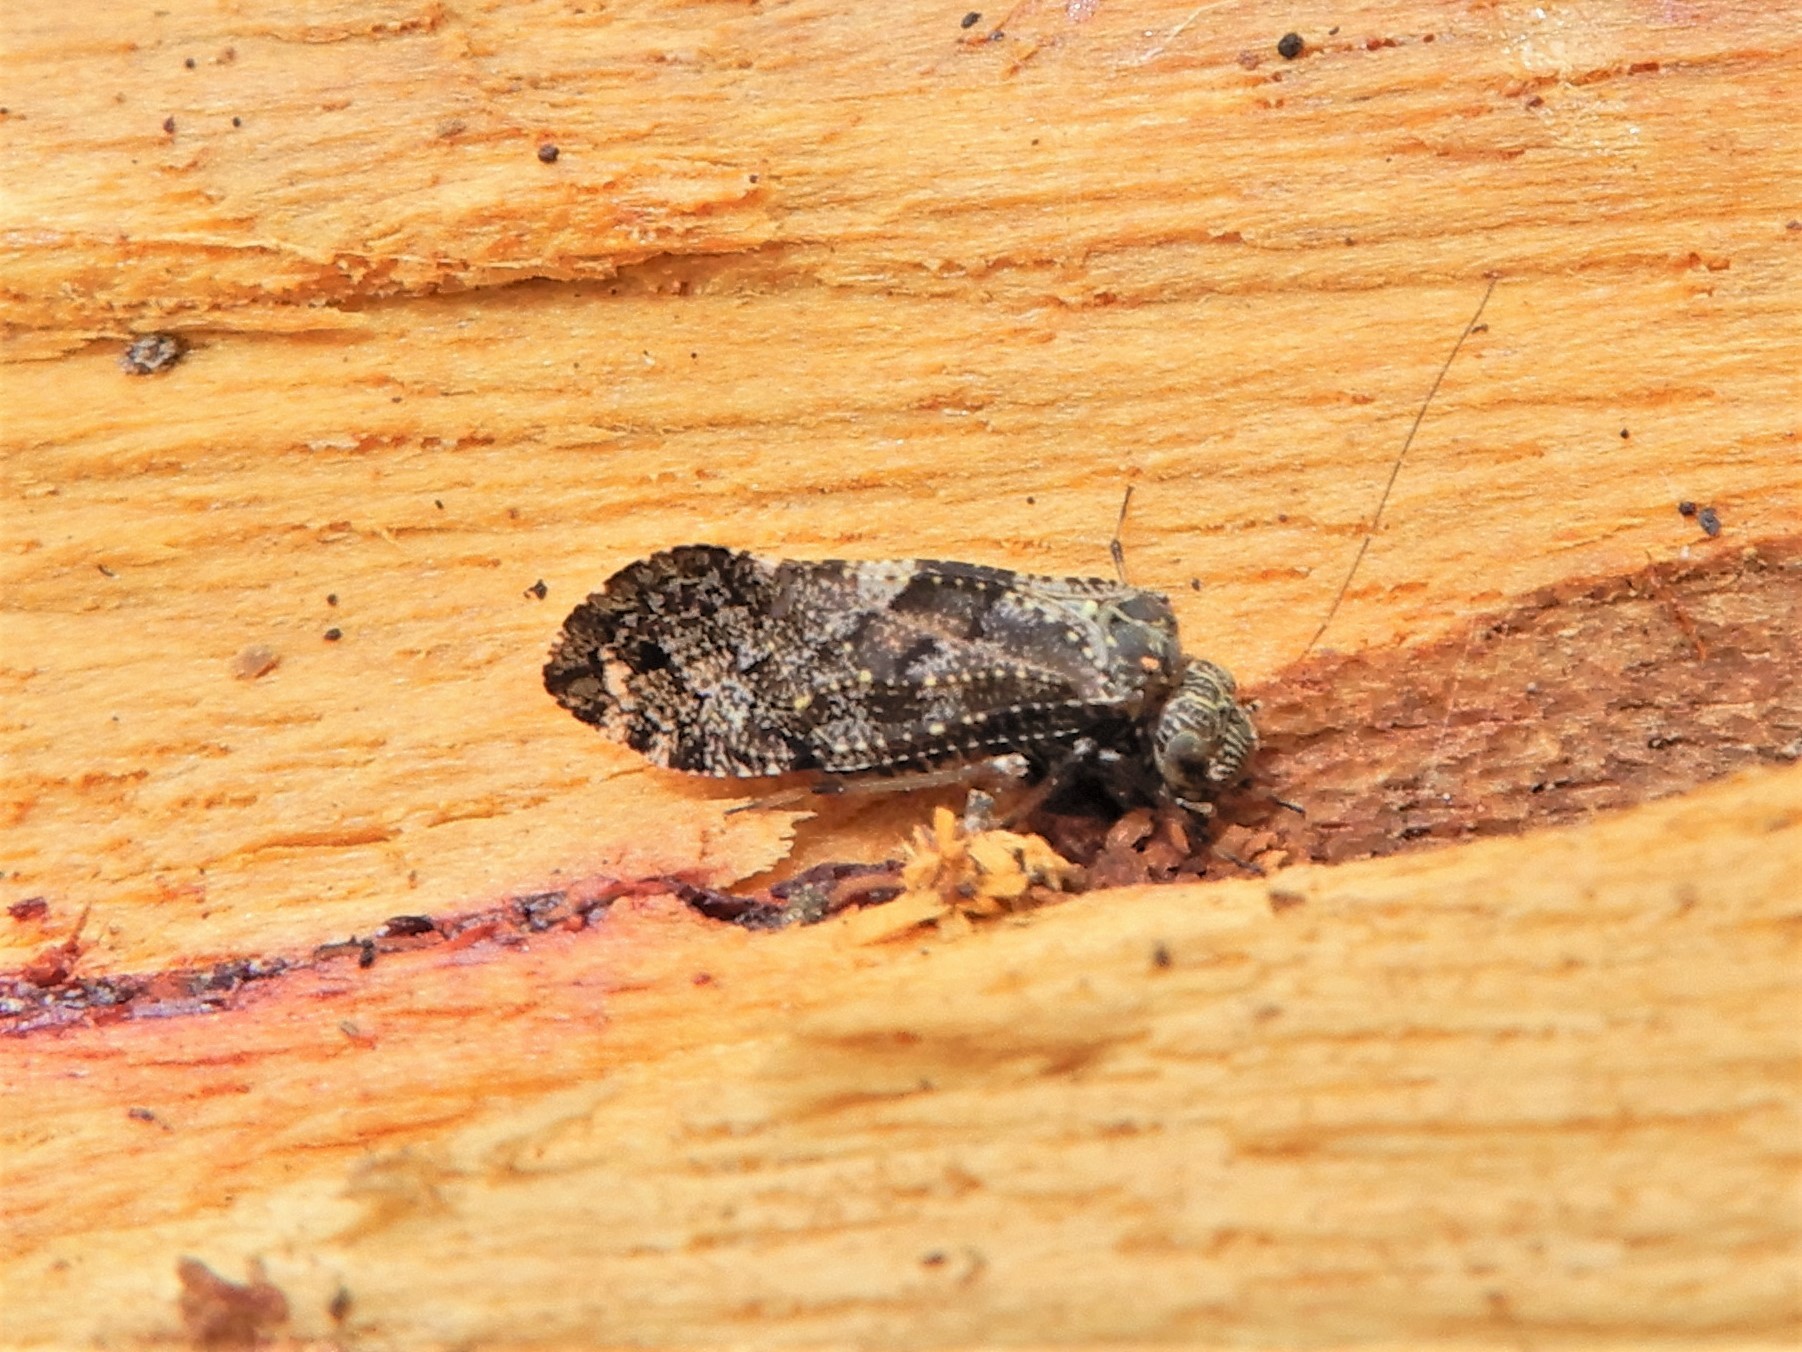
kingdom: Animalia
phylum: Arthropoda
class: Insecta
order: Psocodea
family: Myopsocidae
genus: Nimbopsocus
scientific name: Nimbopsocus australis
